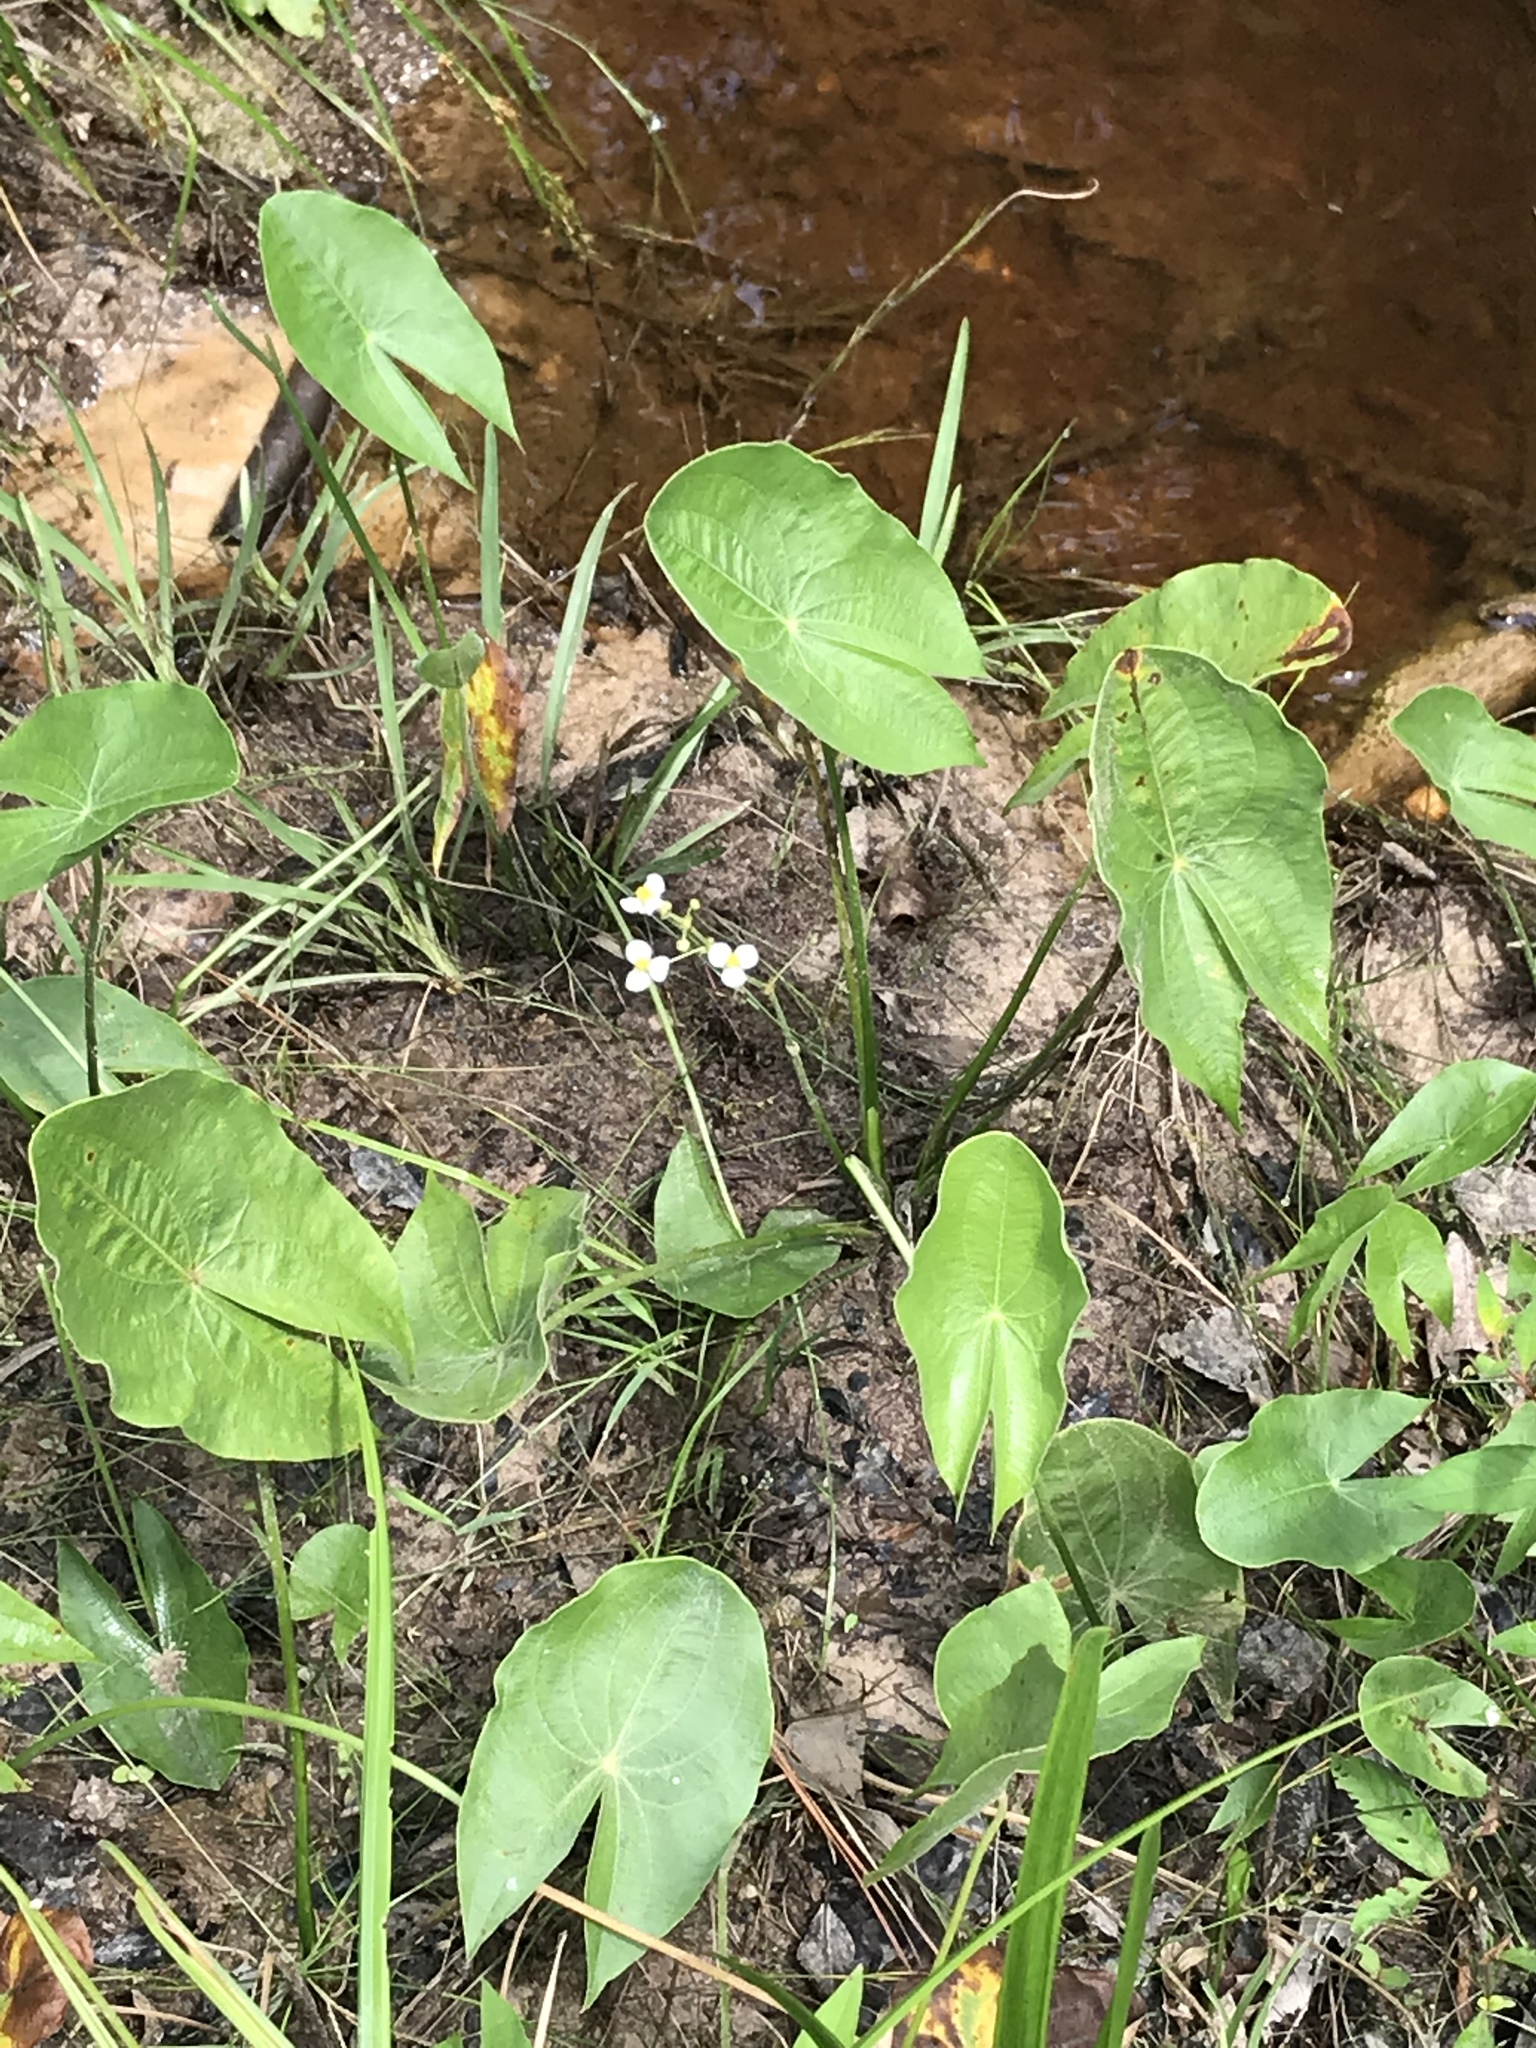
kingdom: Plantae
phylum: Tracheophyta
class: Liliopsida
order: Alismatales
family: Alismataceae
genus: Sagittaria
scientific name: Sagittaria latifolia
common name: Duck-potato
